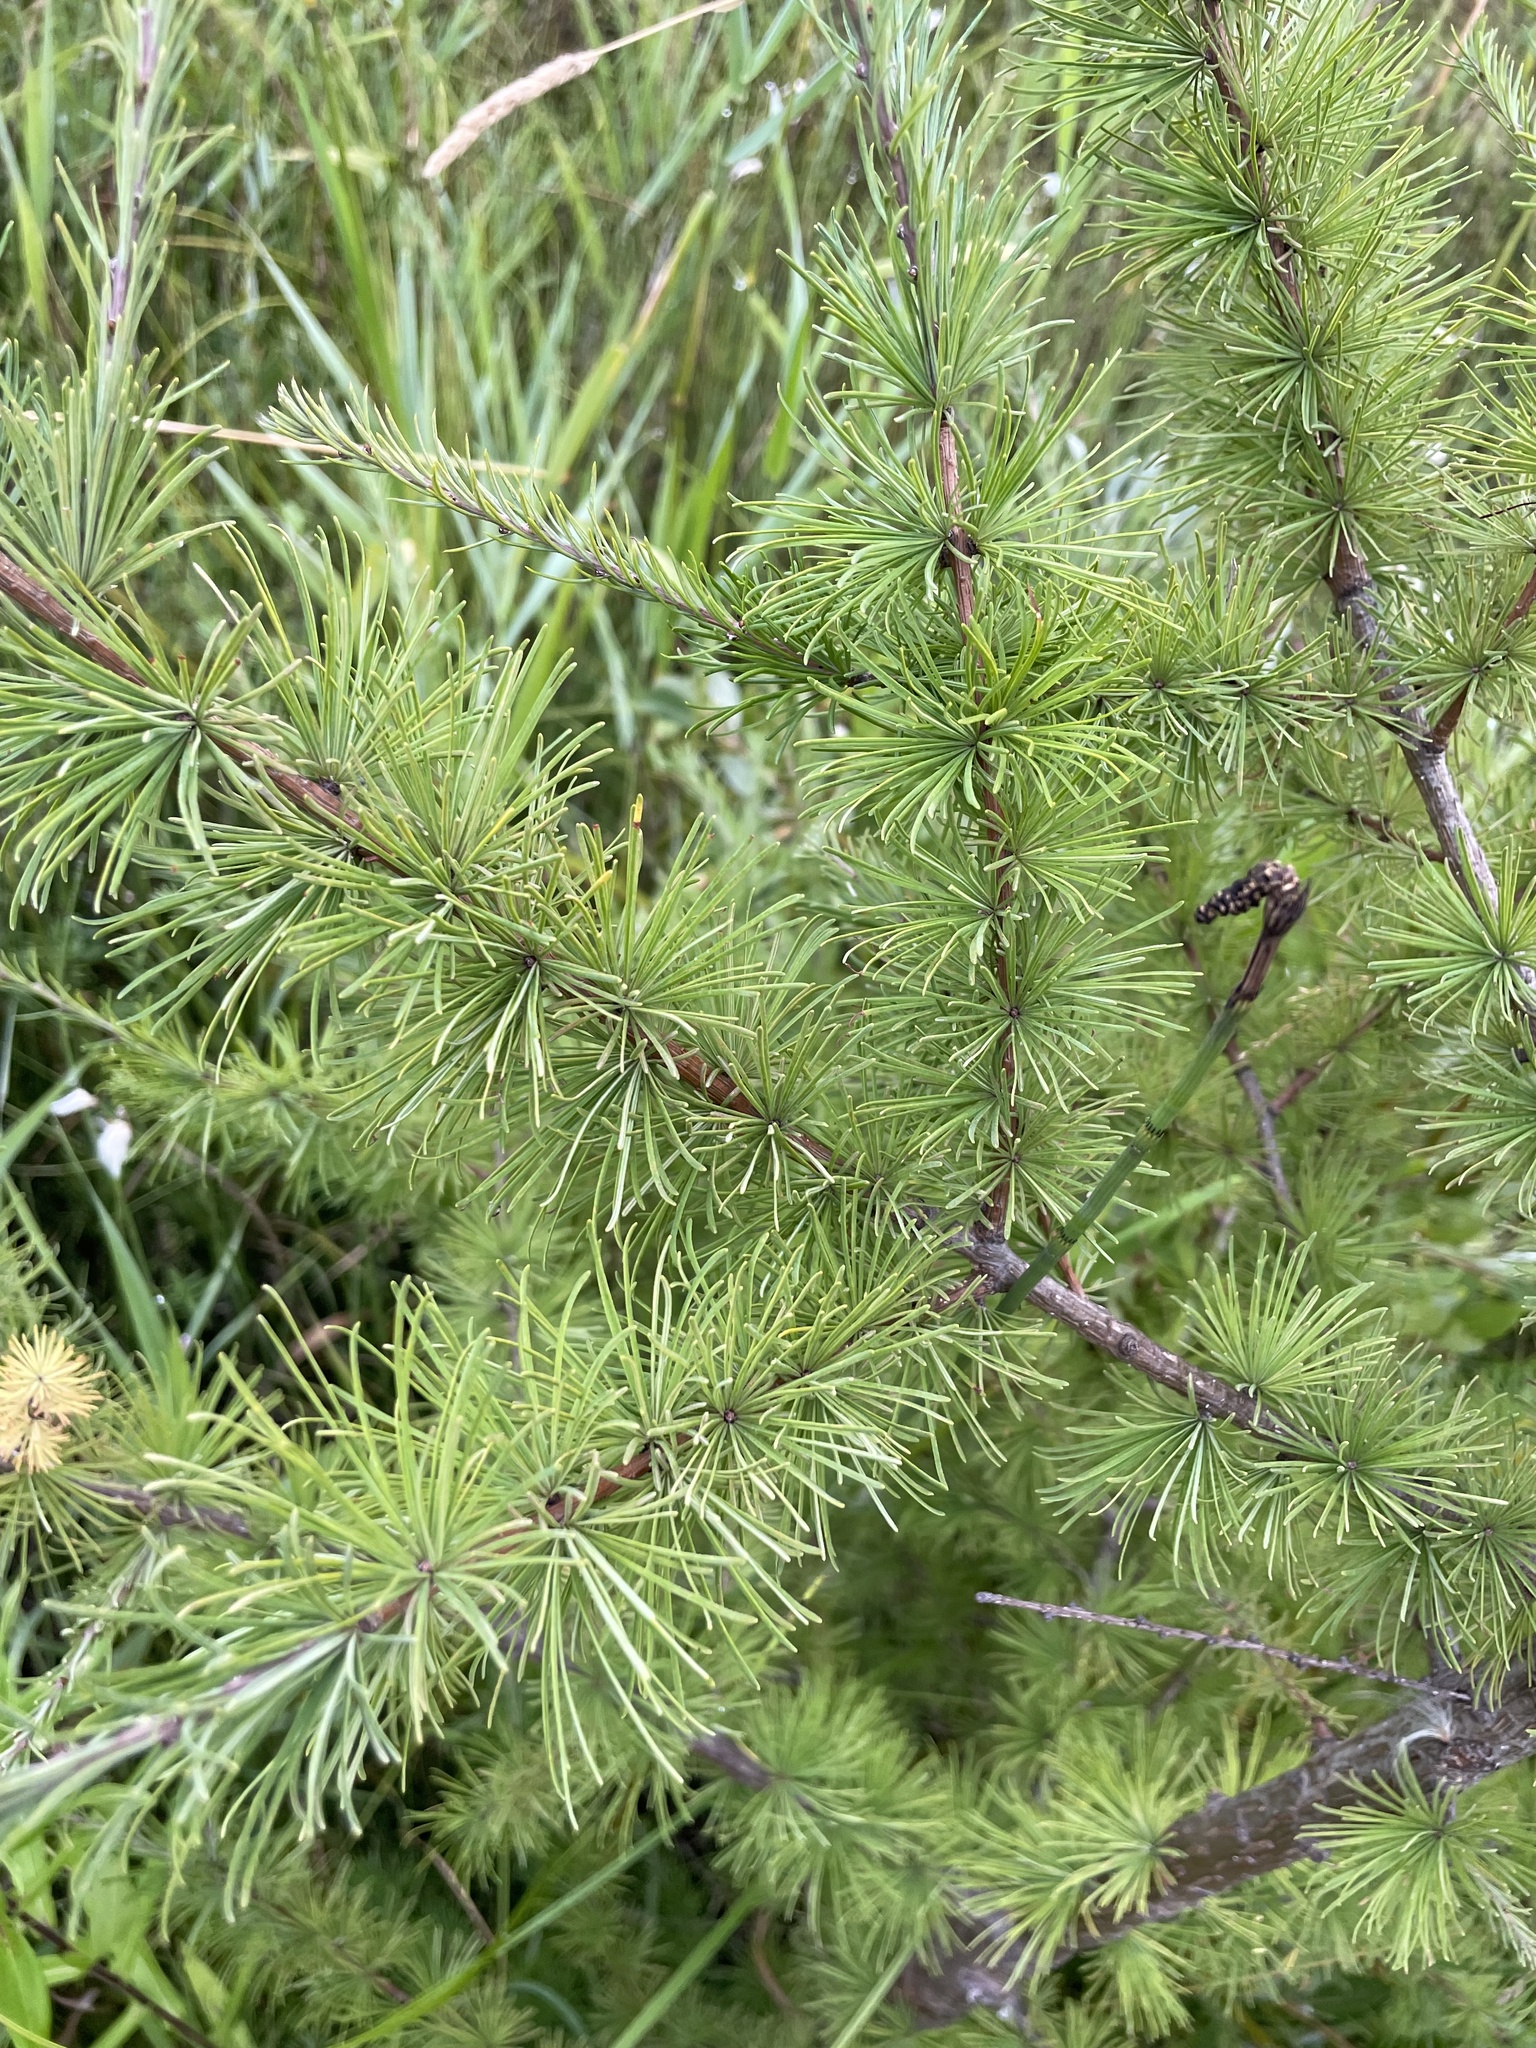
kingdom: Plantae
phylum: Tracheophyta
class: Pinopsida
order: Pinales
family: Pinaceae
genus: Larix
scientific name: Larix laricina
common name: American larch
